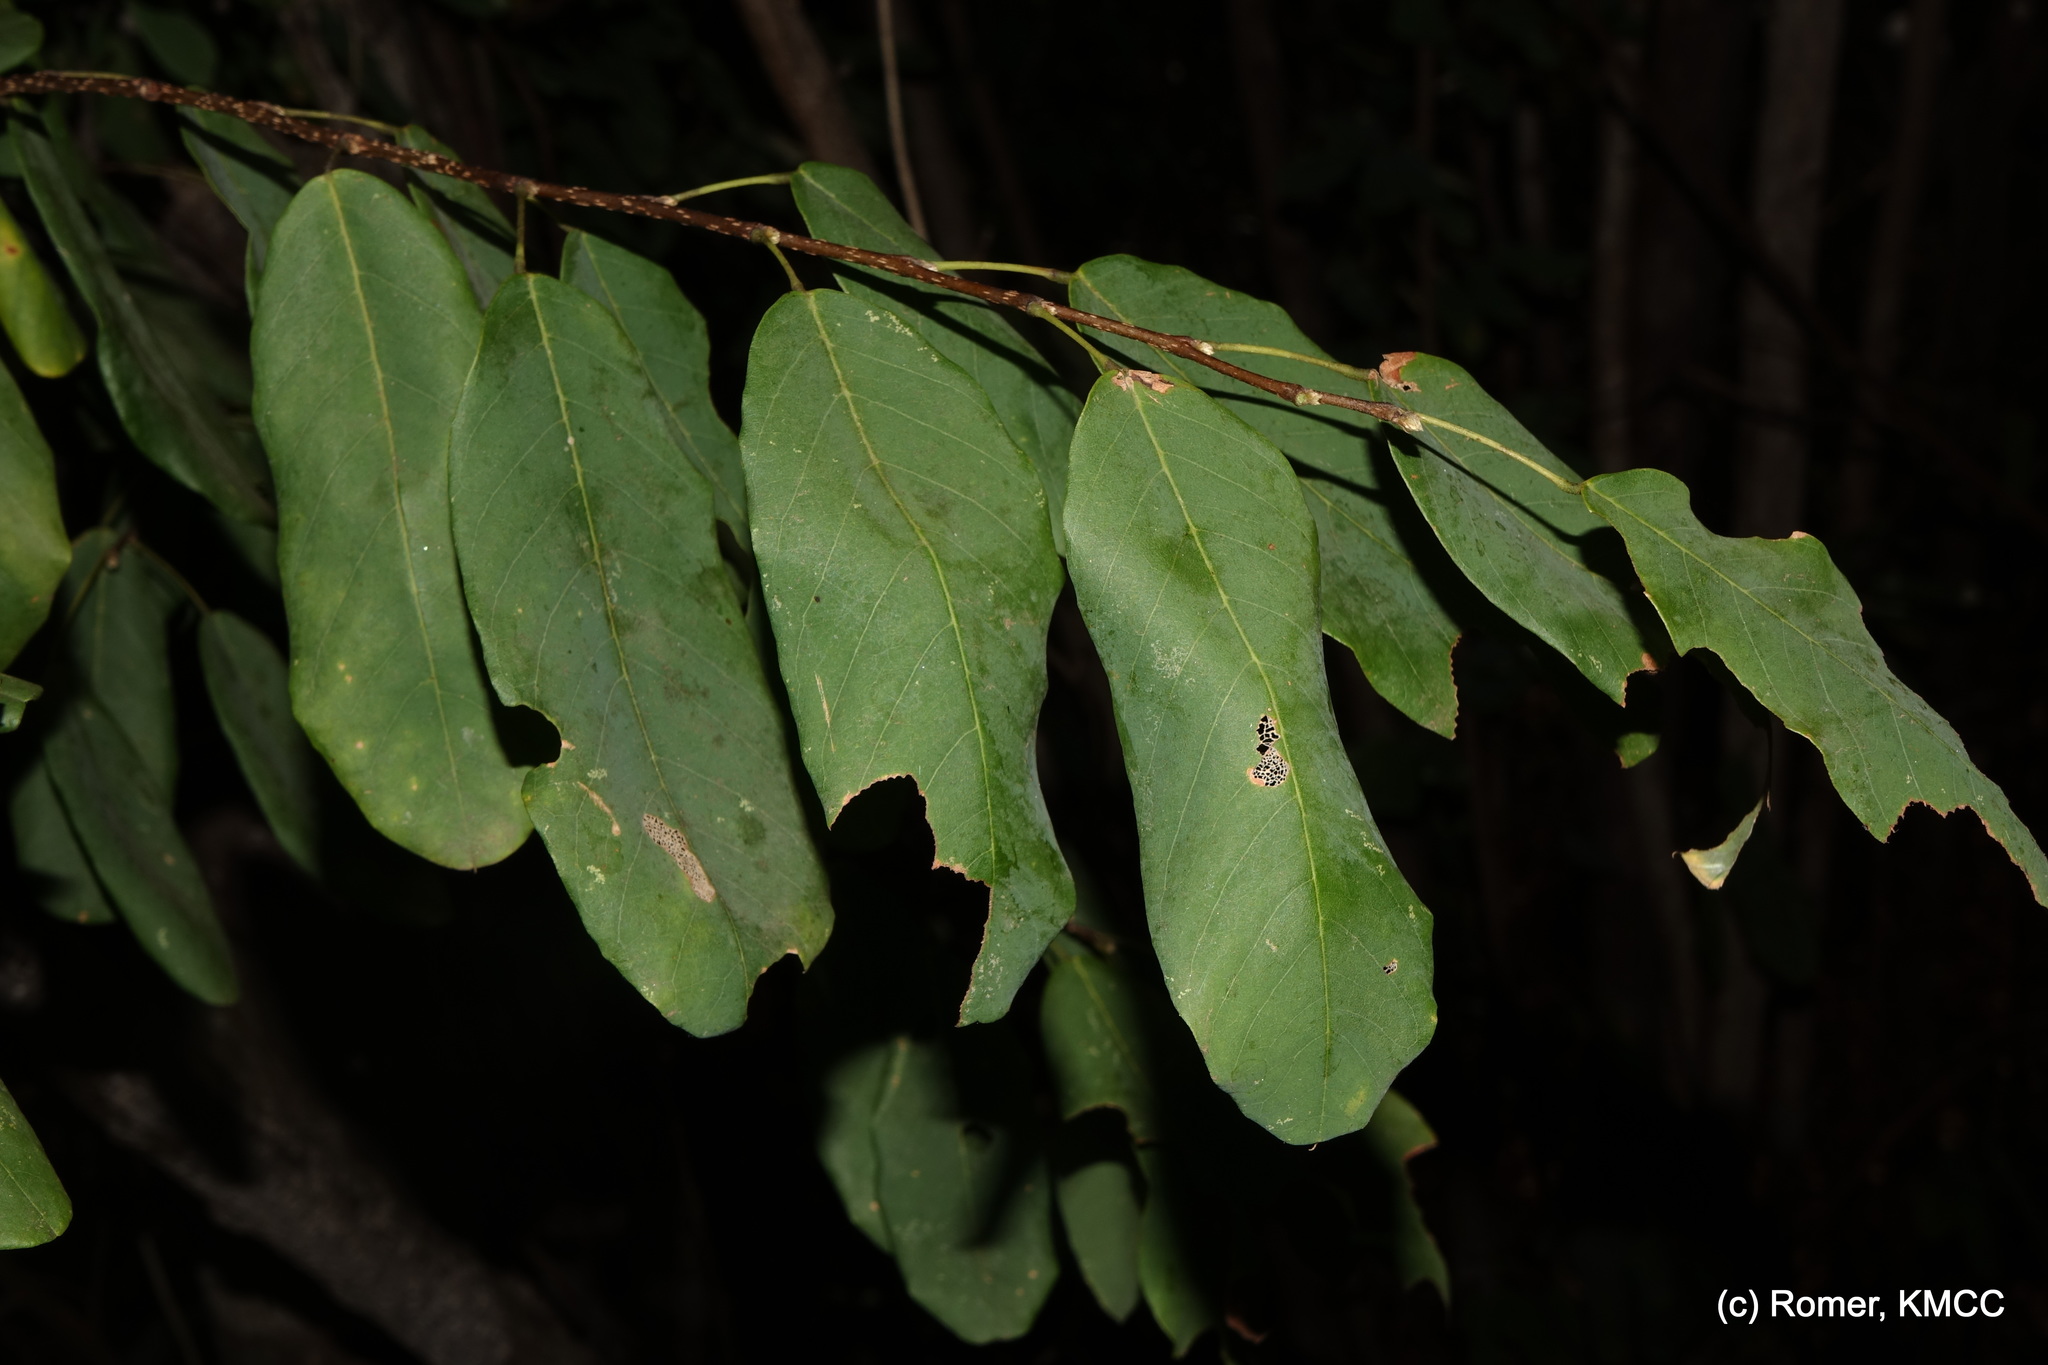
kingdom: Plantae
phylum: Tracheophyta
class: Magnoliopsida
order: Fabales
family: Fabaceae
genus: Baphia
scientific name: Baphia madagascariensis
